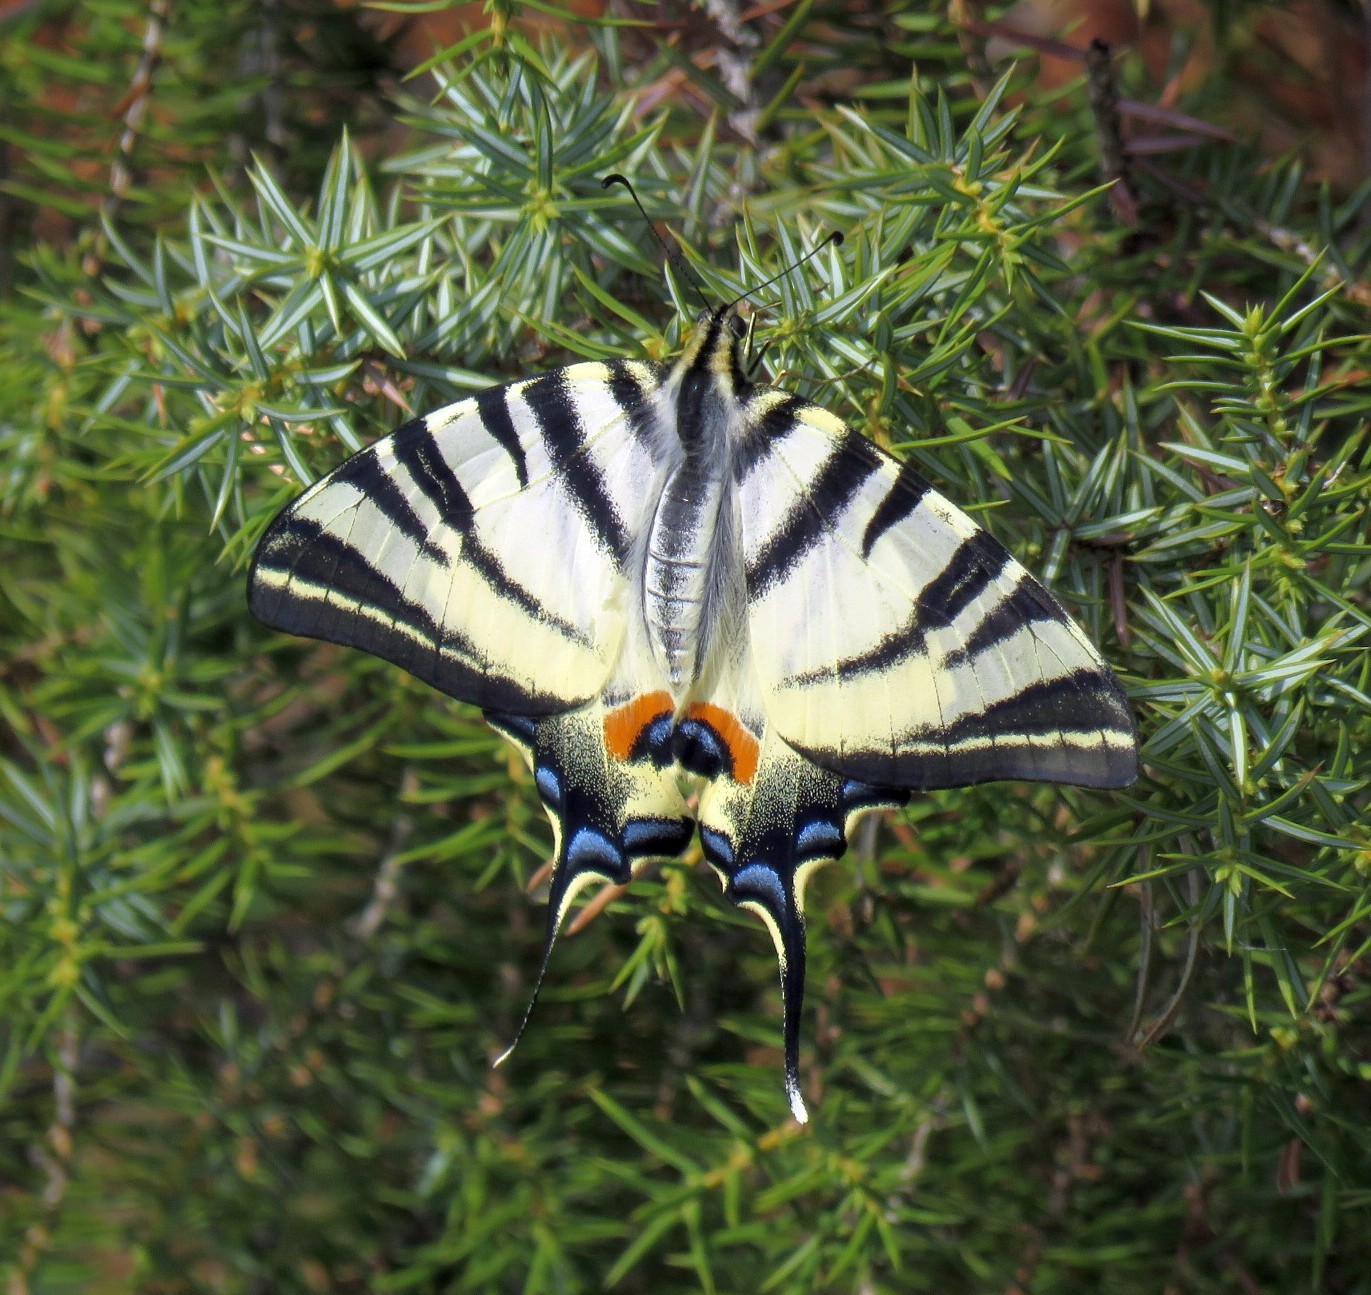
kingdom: Animalia
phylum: Arthropoda
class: Insecta
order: Lepidoptera
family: Papilionidae
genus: Iphiclides
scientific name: Iphiclides podalirius
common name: Scarce swallowtail
